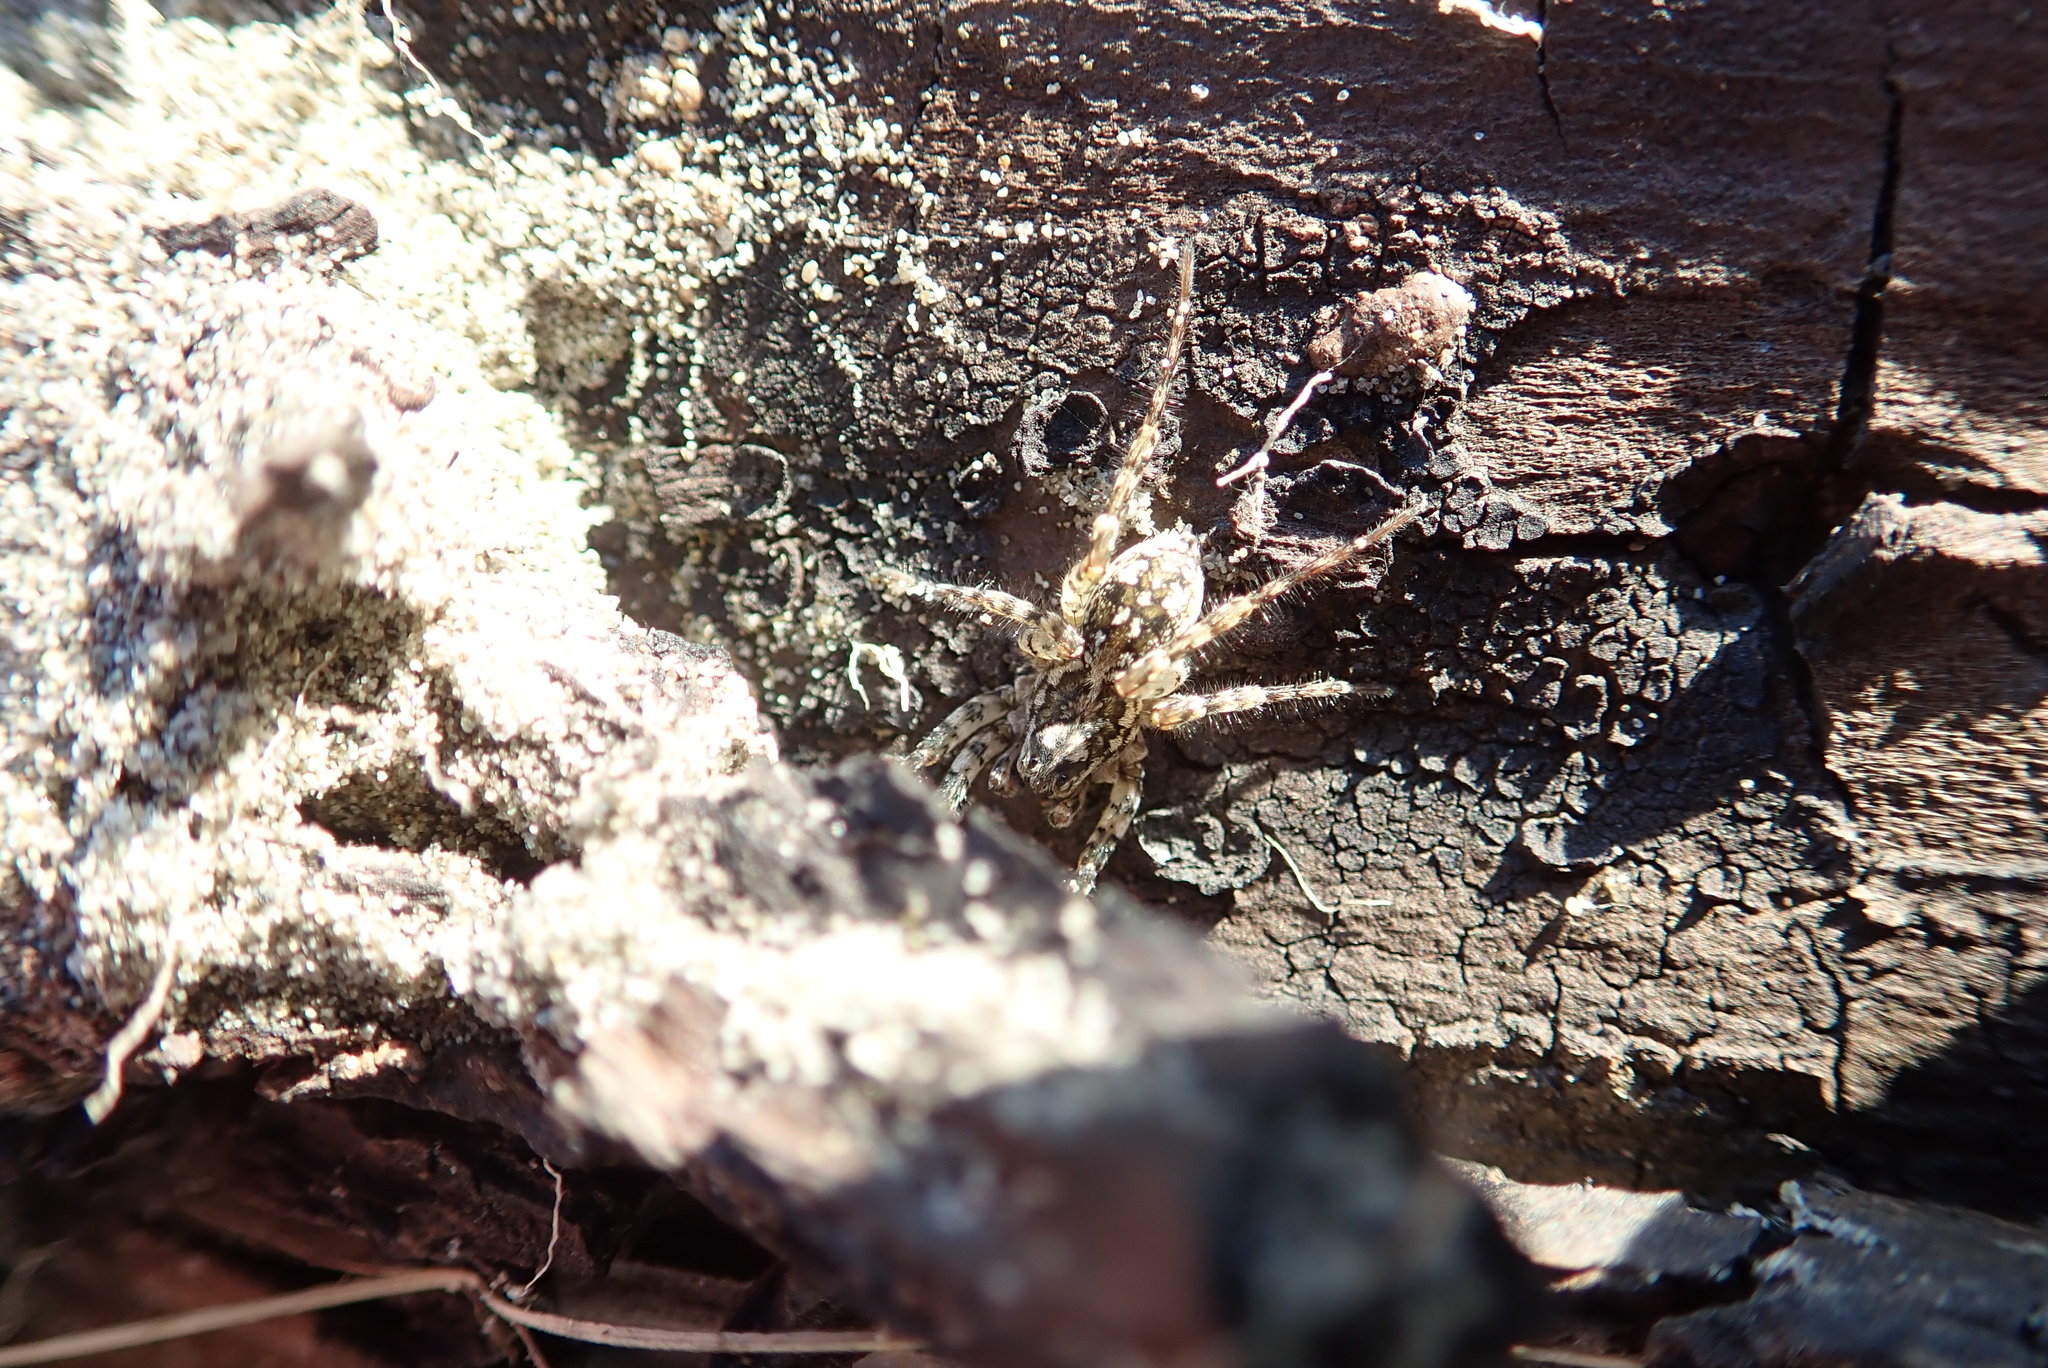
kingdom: Animalia
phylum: Arthropoda
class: Arachnida
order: Araneae
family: Lycosidae
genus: Anoteropsis
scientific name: Anoteropsis litoralis
